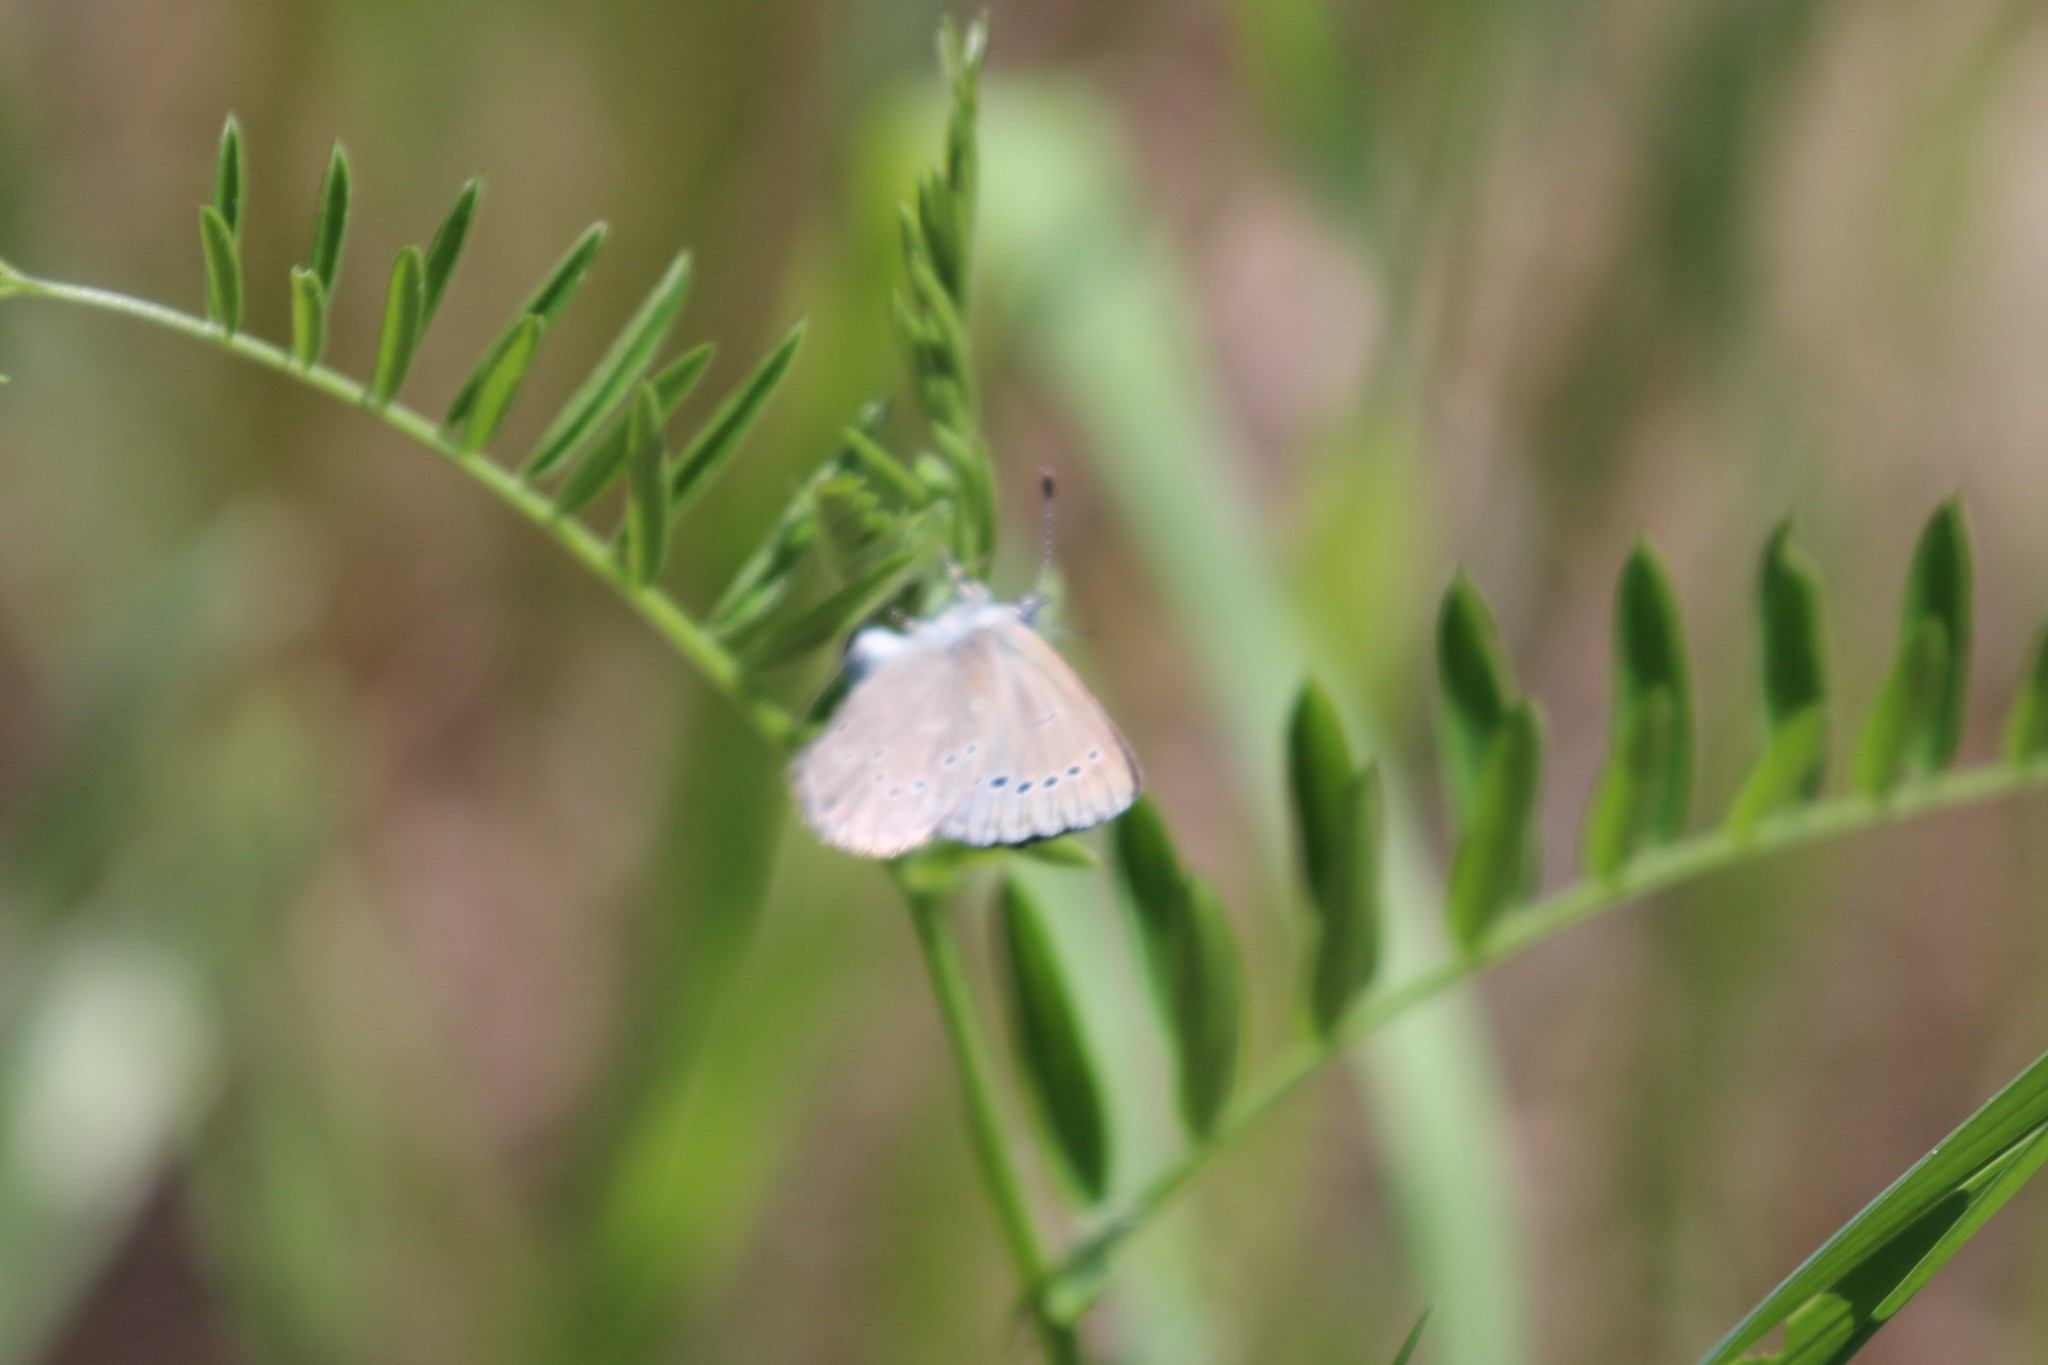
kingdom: Animalia
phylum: Arthropoda
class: Insecta
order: Lepidoptera
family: Lycaenidae
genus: Glaucopsyche
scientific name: Glaucopsyche lygdamus
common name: Silvery blue
